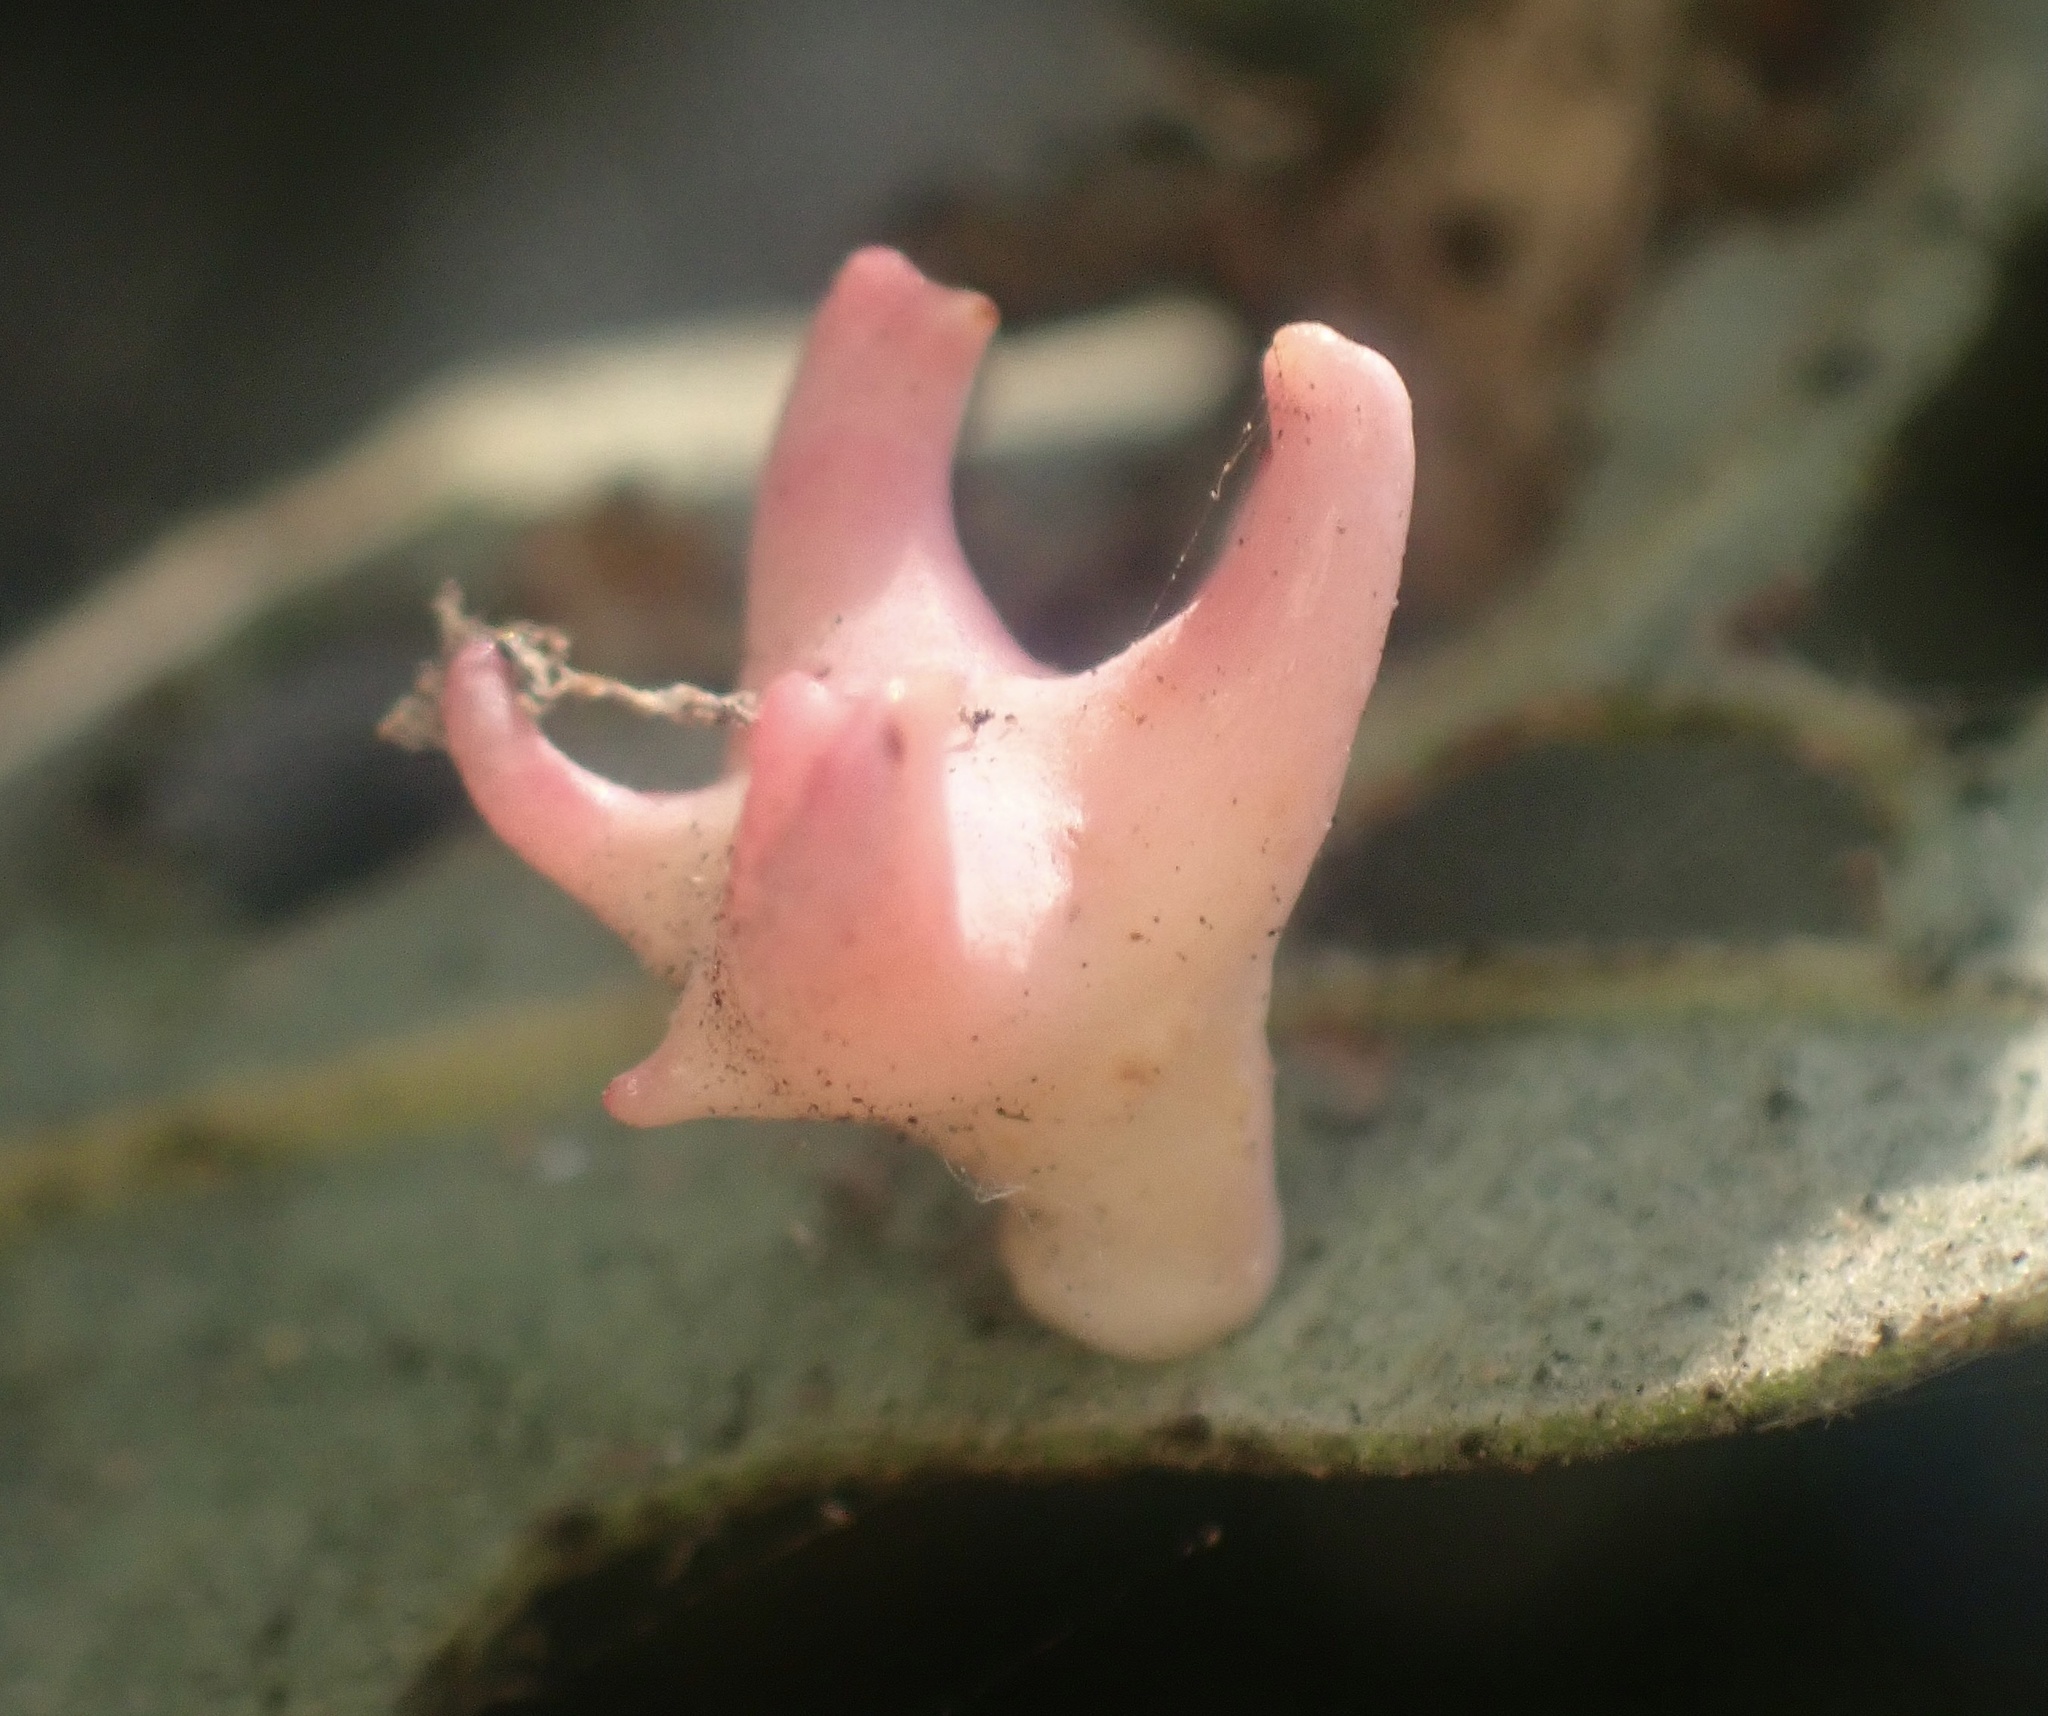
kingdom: Animalia
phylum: Arthropoda
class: Insecta
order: Hymenoptera
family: Cynipidae
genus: Cynips
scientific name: Cynips douglasi
